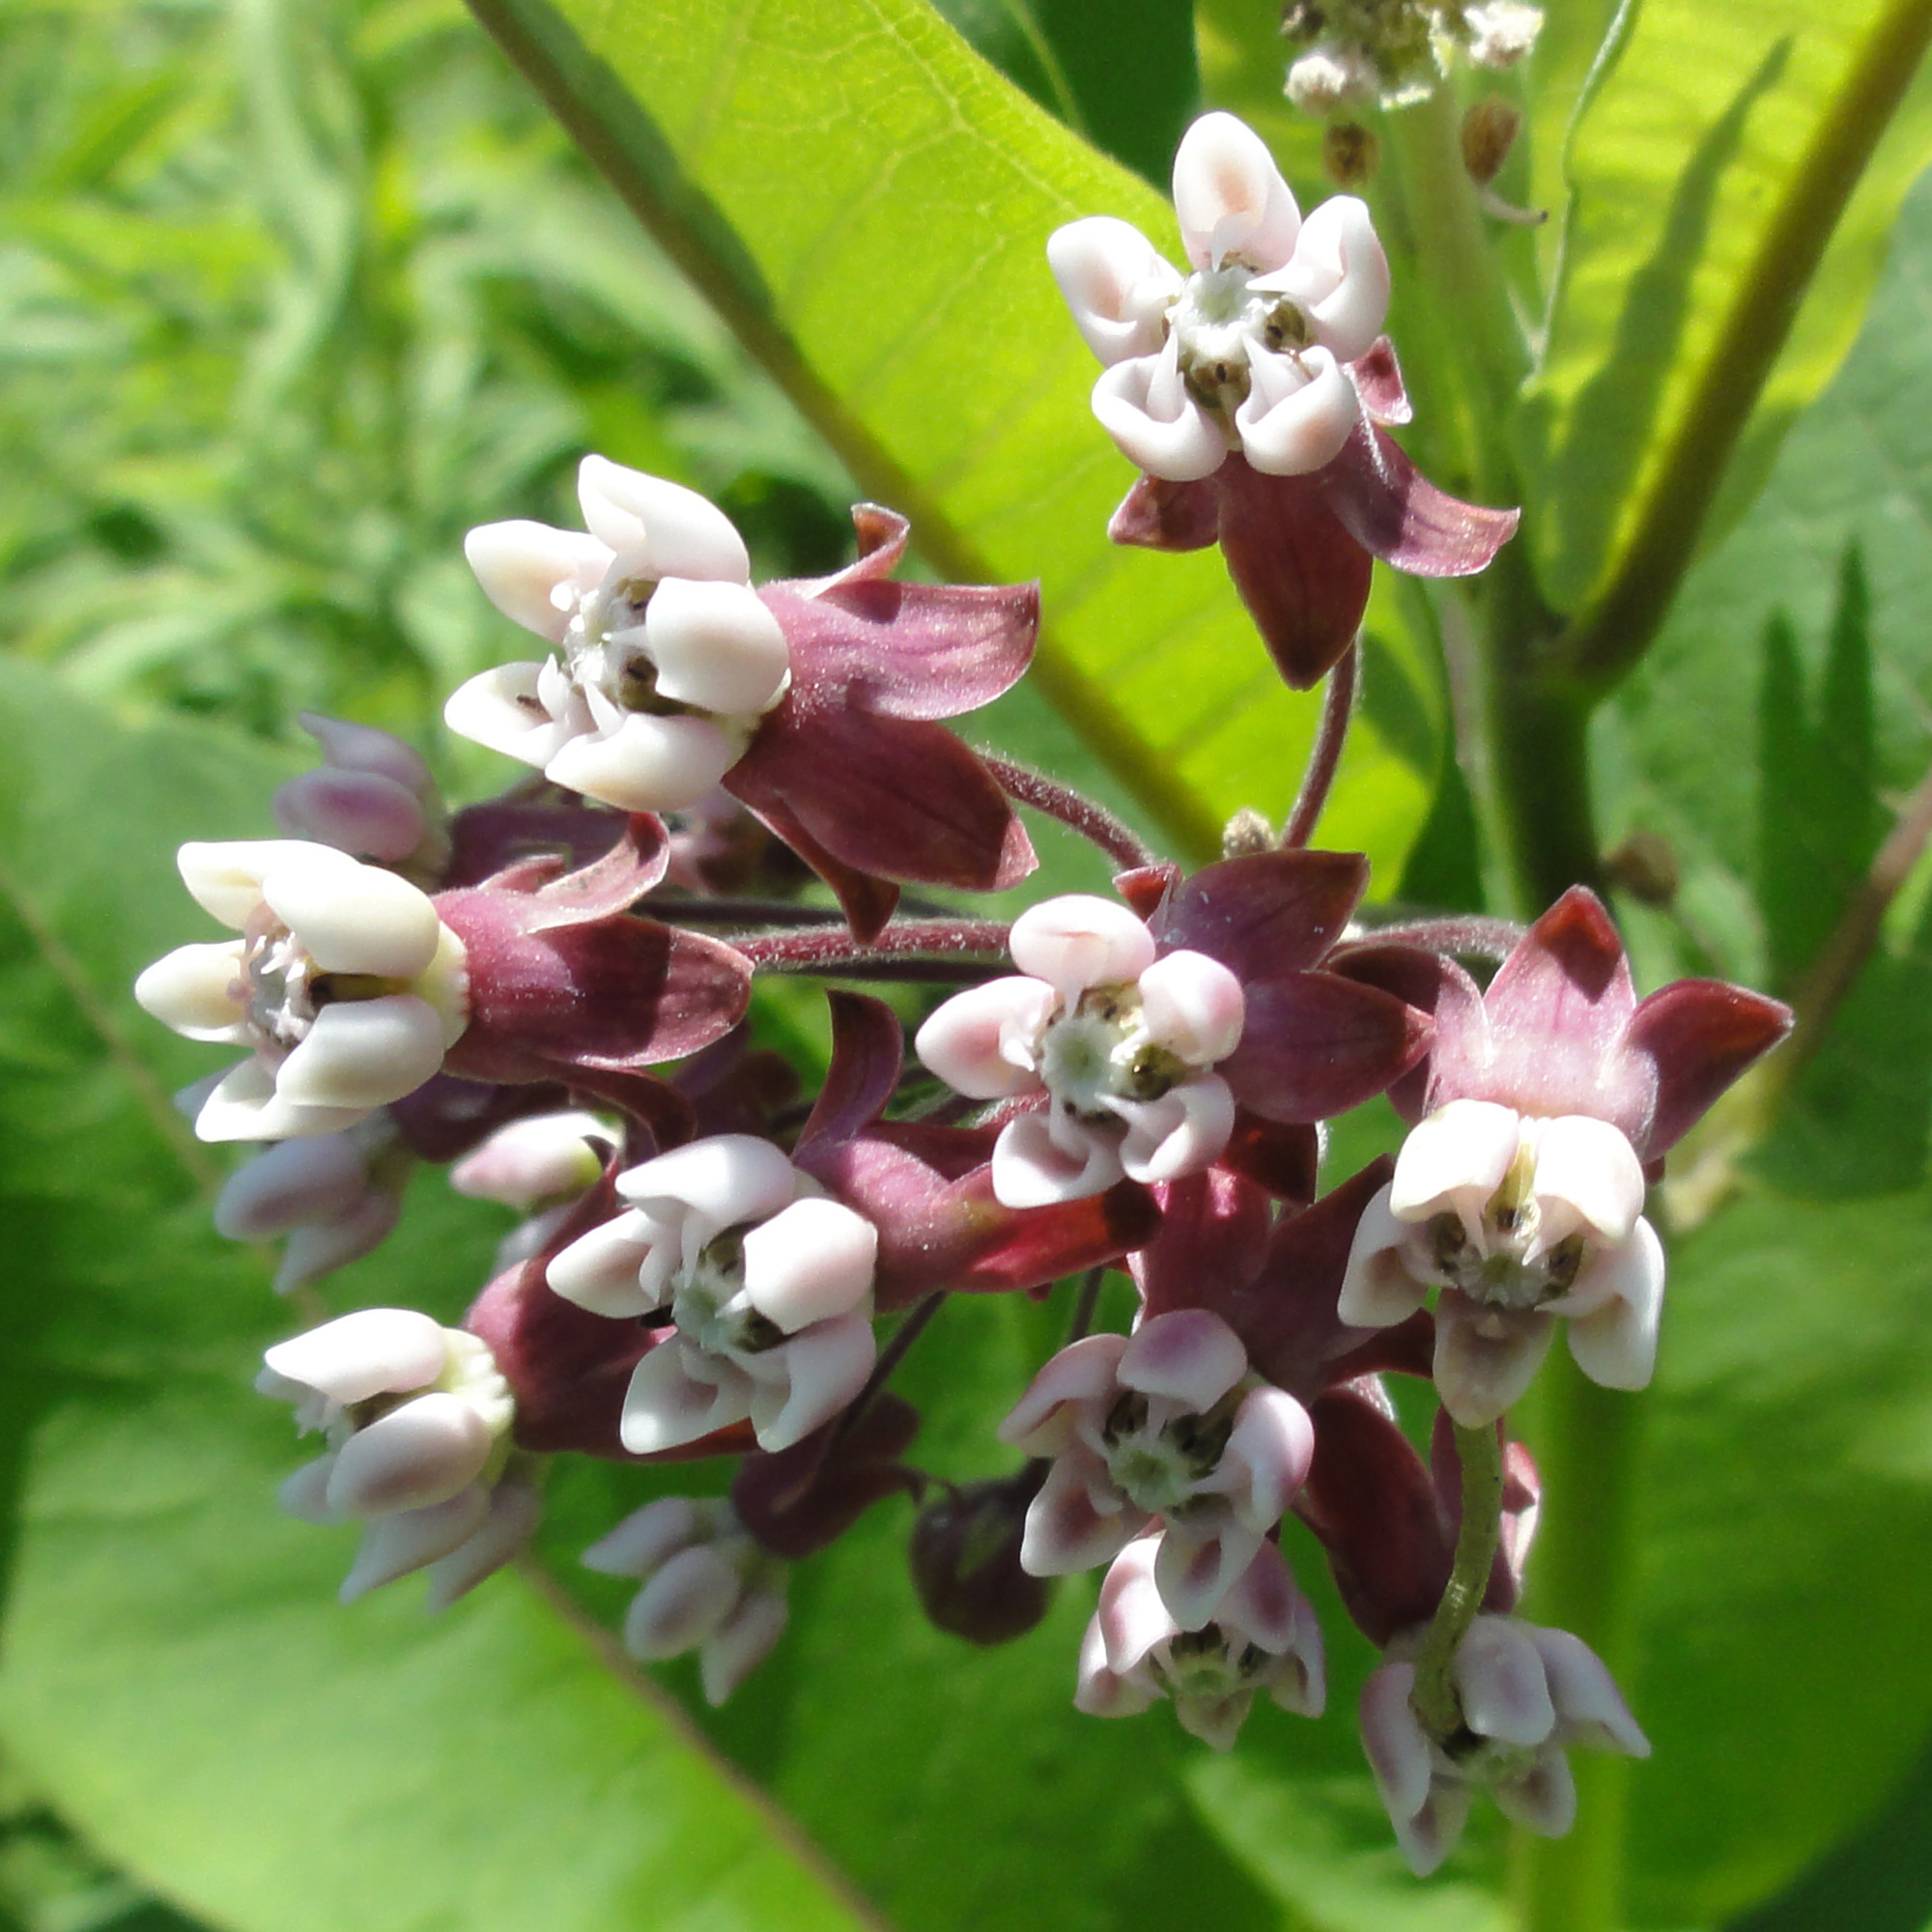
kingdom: Plantae
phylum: Tracheophyta
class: Magnoliopsida
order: Gentianales
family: Apocynaceae
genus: Asclepias
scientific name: Asclepias syriaca
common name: Common milkweed
